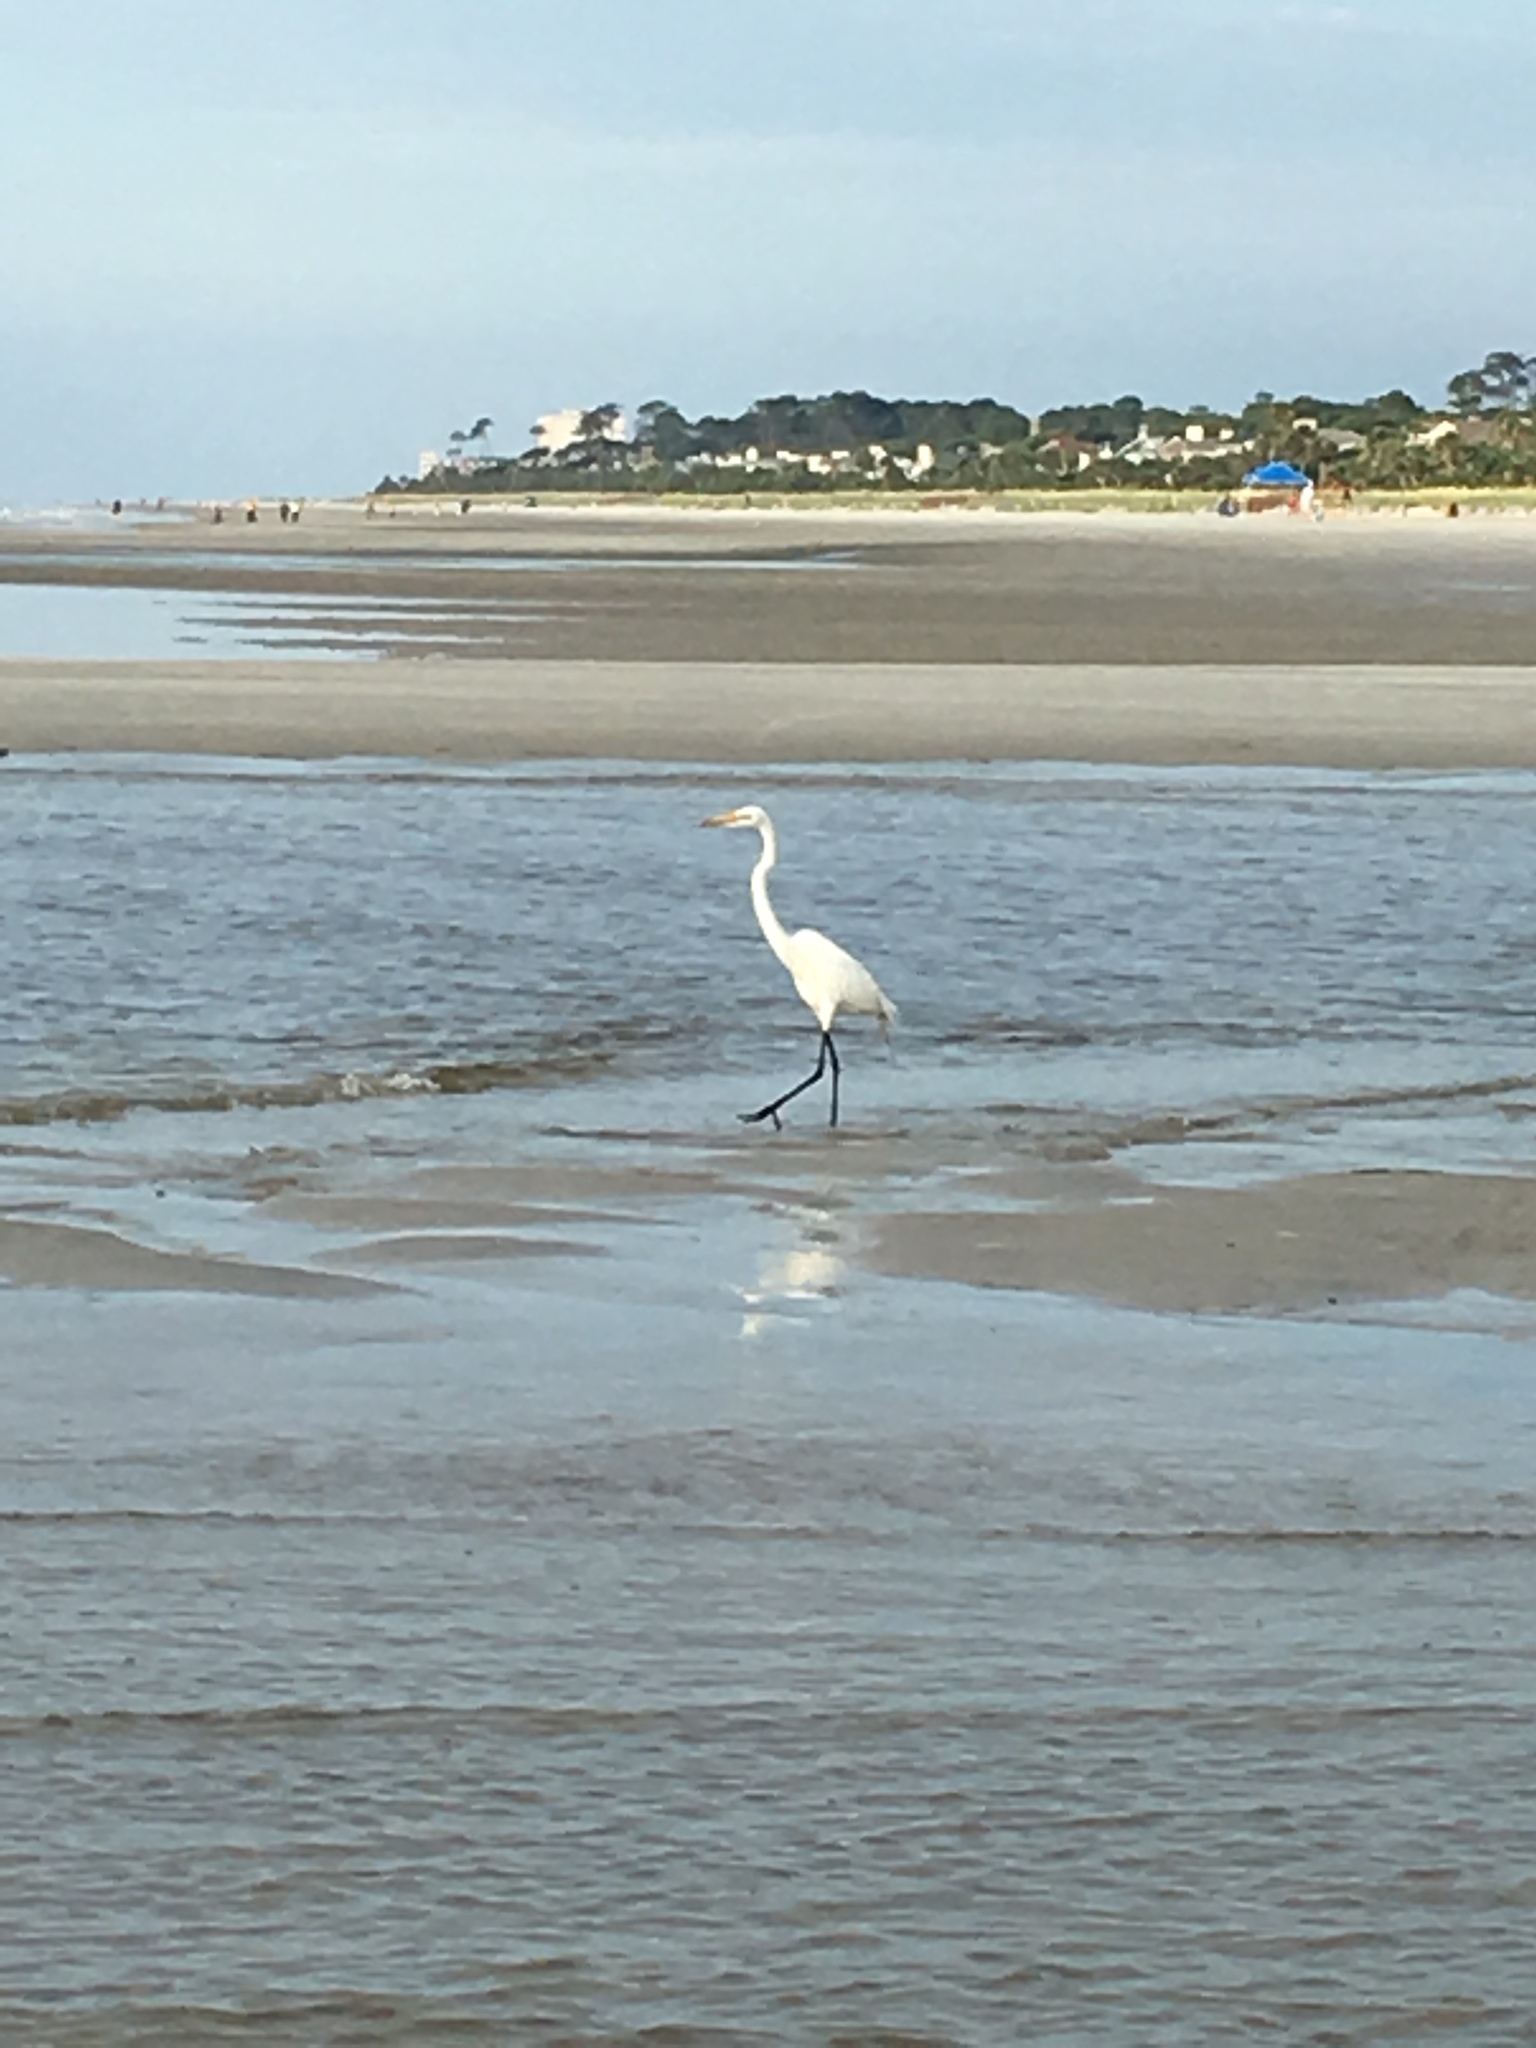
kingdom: Animalia
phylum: Chordata
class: Aves
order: Pelecaniformes
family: Ardeidae
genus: Ardea
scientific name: Ardea alba
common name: Great egret
